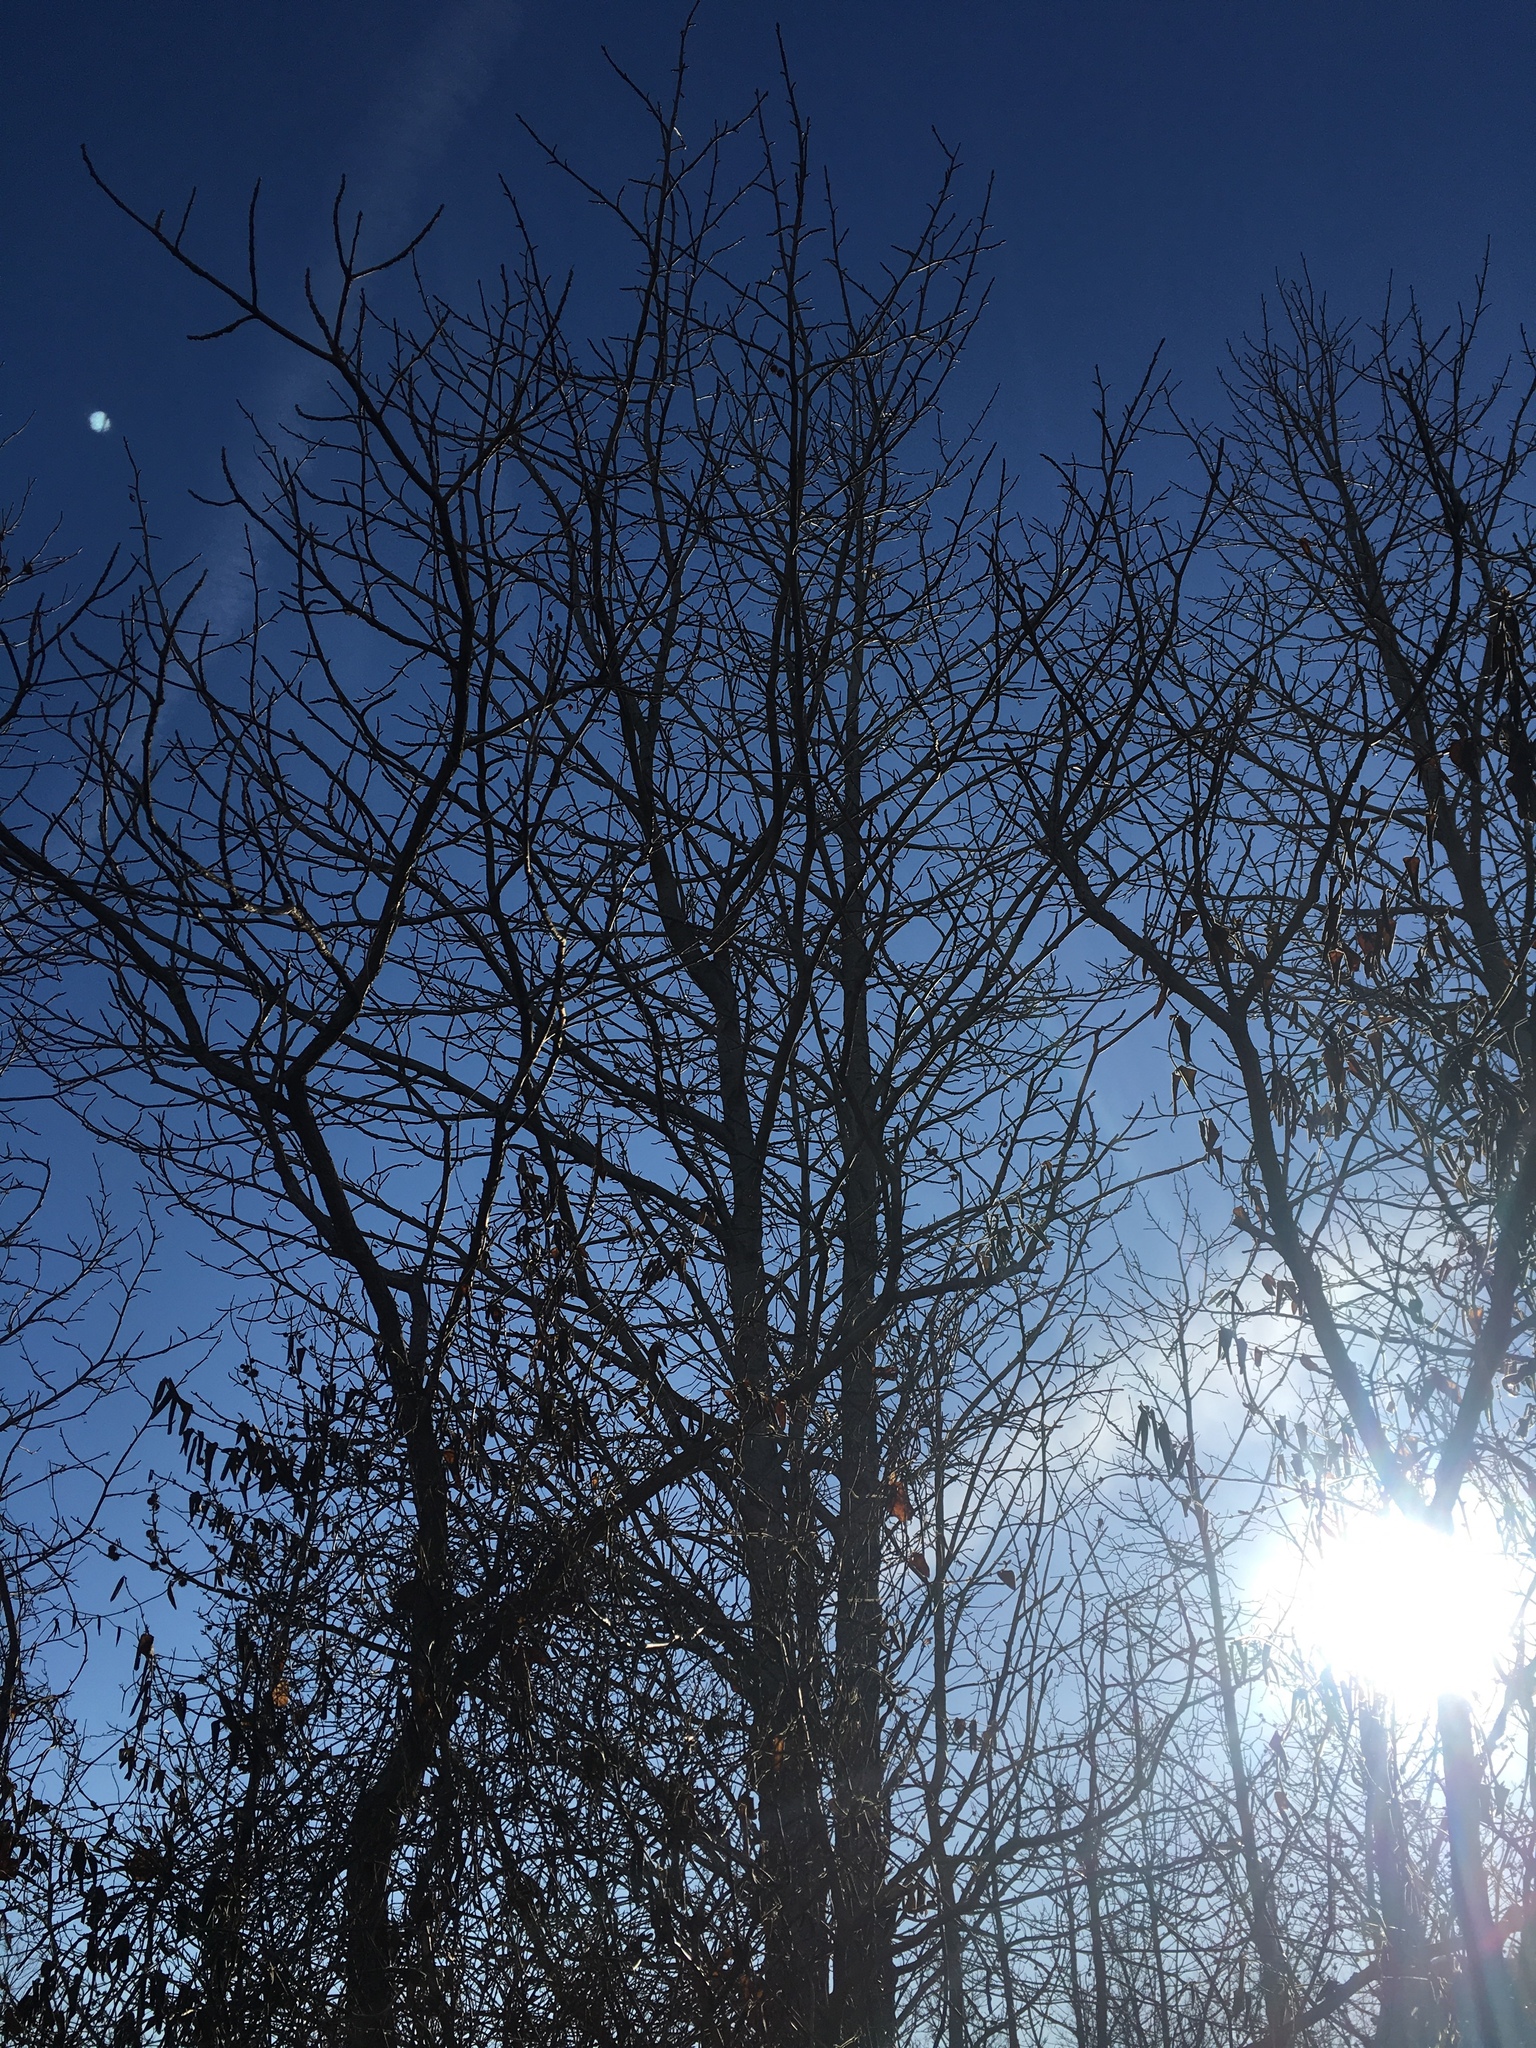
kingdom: Plantae
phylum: Tracheophyta
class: Magnoliopsida
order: Saxifragales
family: Altingiaceae
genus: Liquidambar
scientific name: Liquidambar styraciflua
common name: Sweet gum
